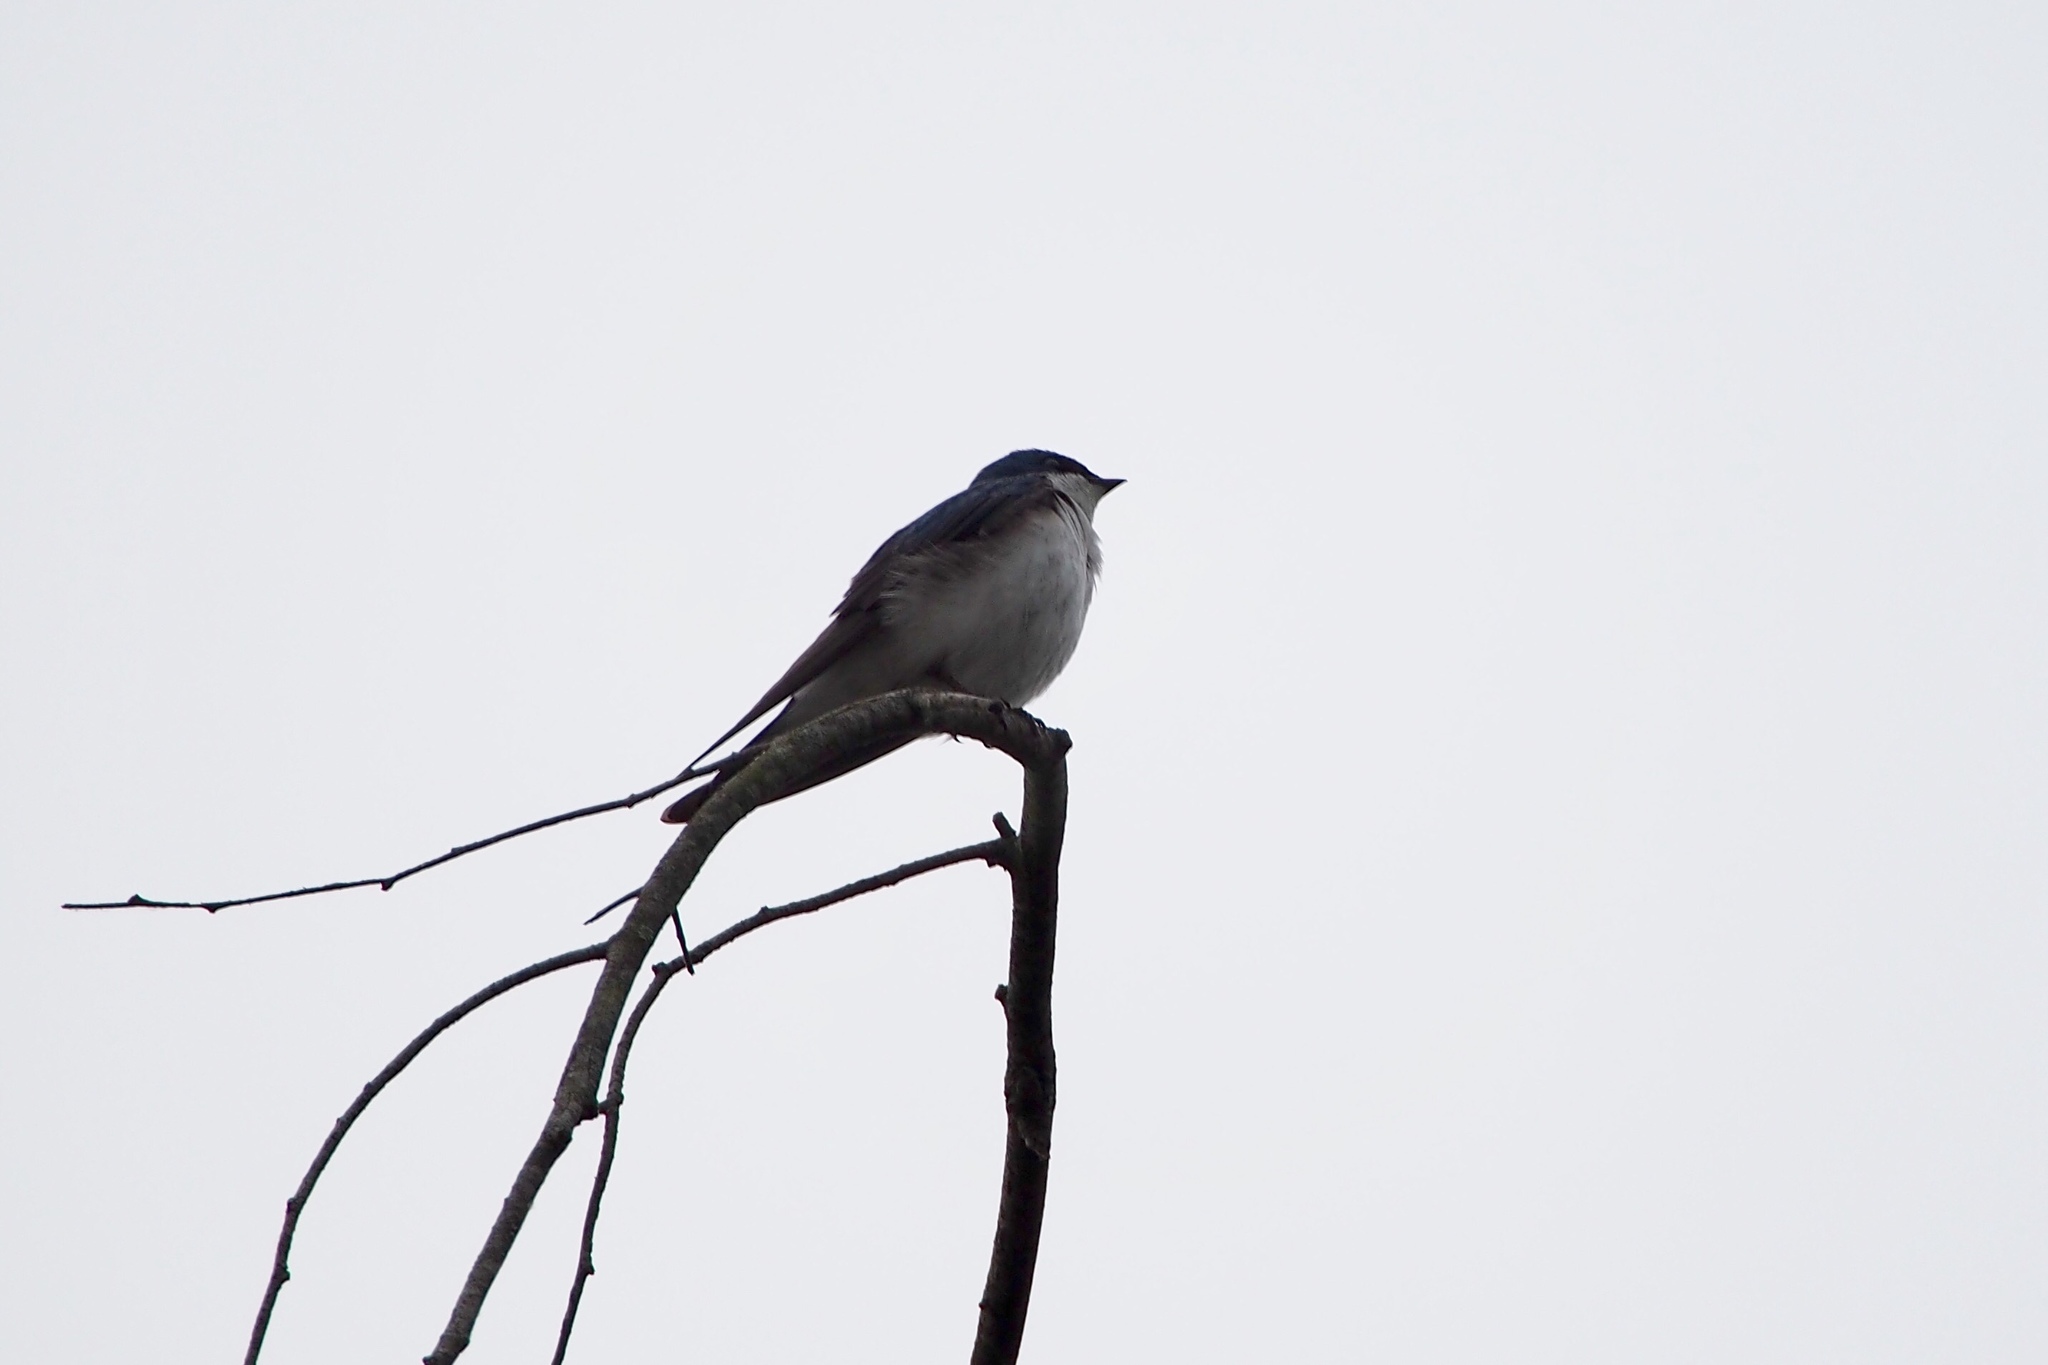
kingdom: Animalia
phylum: Chordata
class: Aves
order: Passeriformes
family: Hirundinidae
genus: Tachycineta
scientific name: Tachycineta bicolor
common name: Tree swallow
